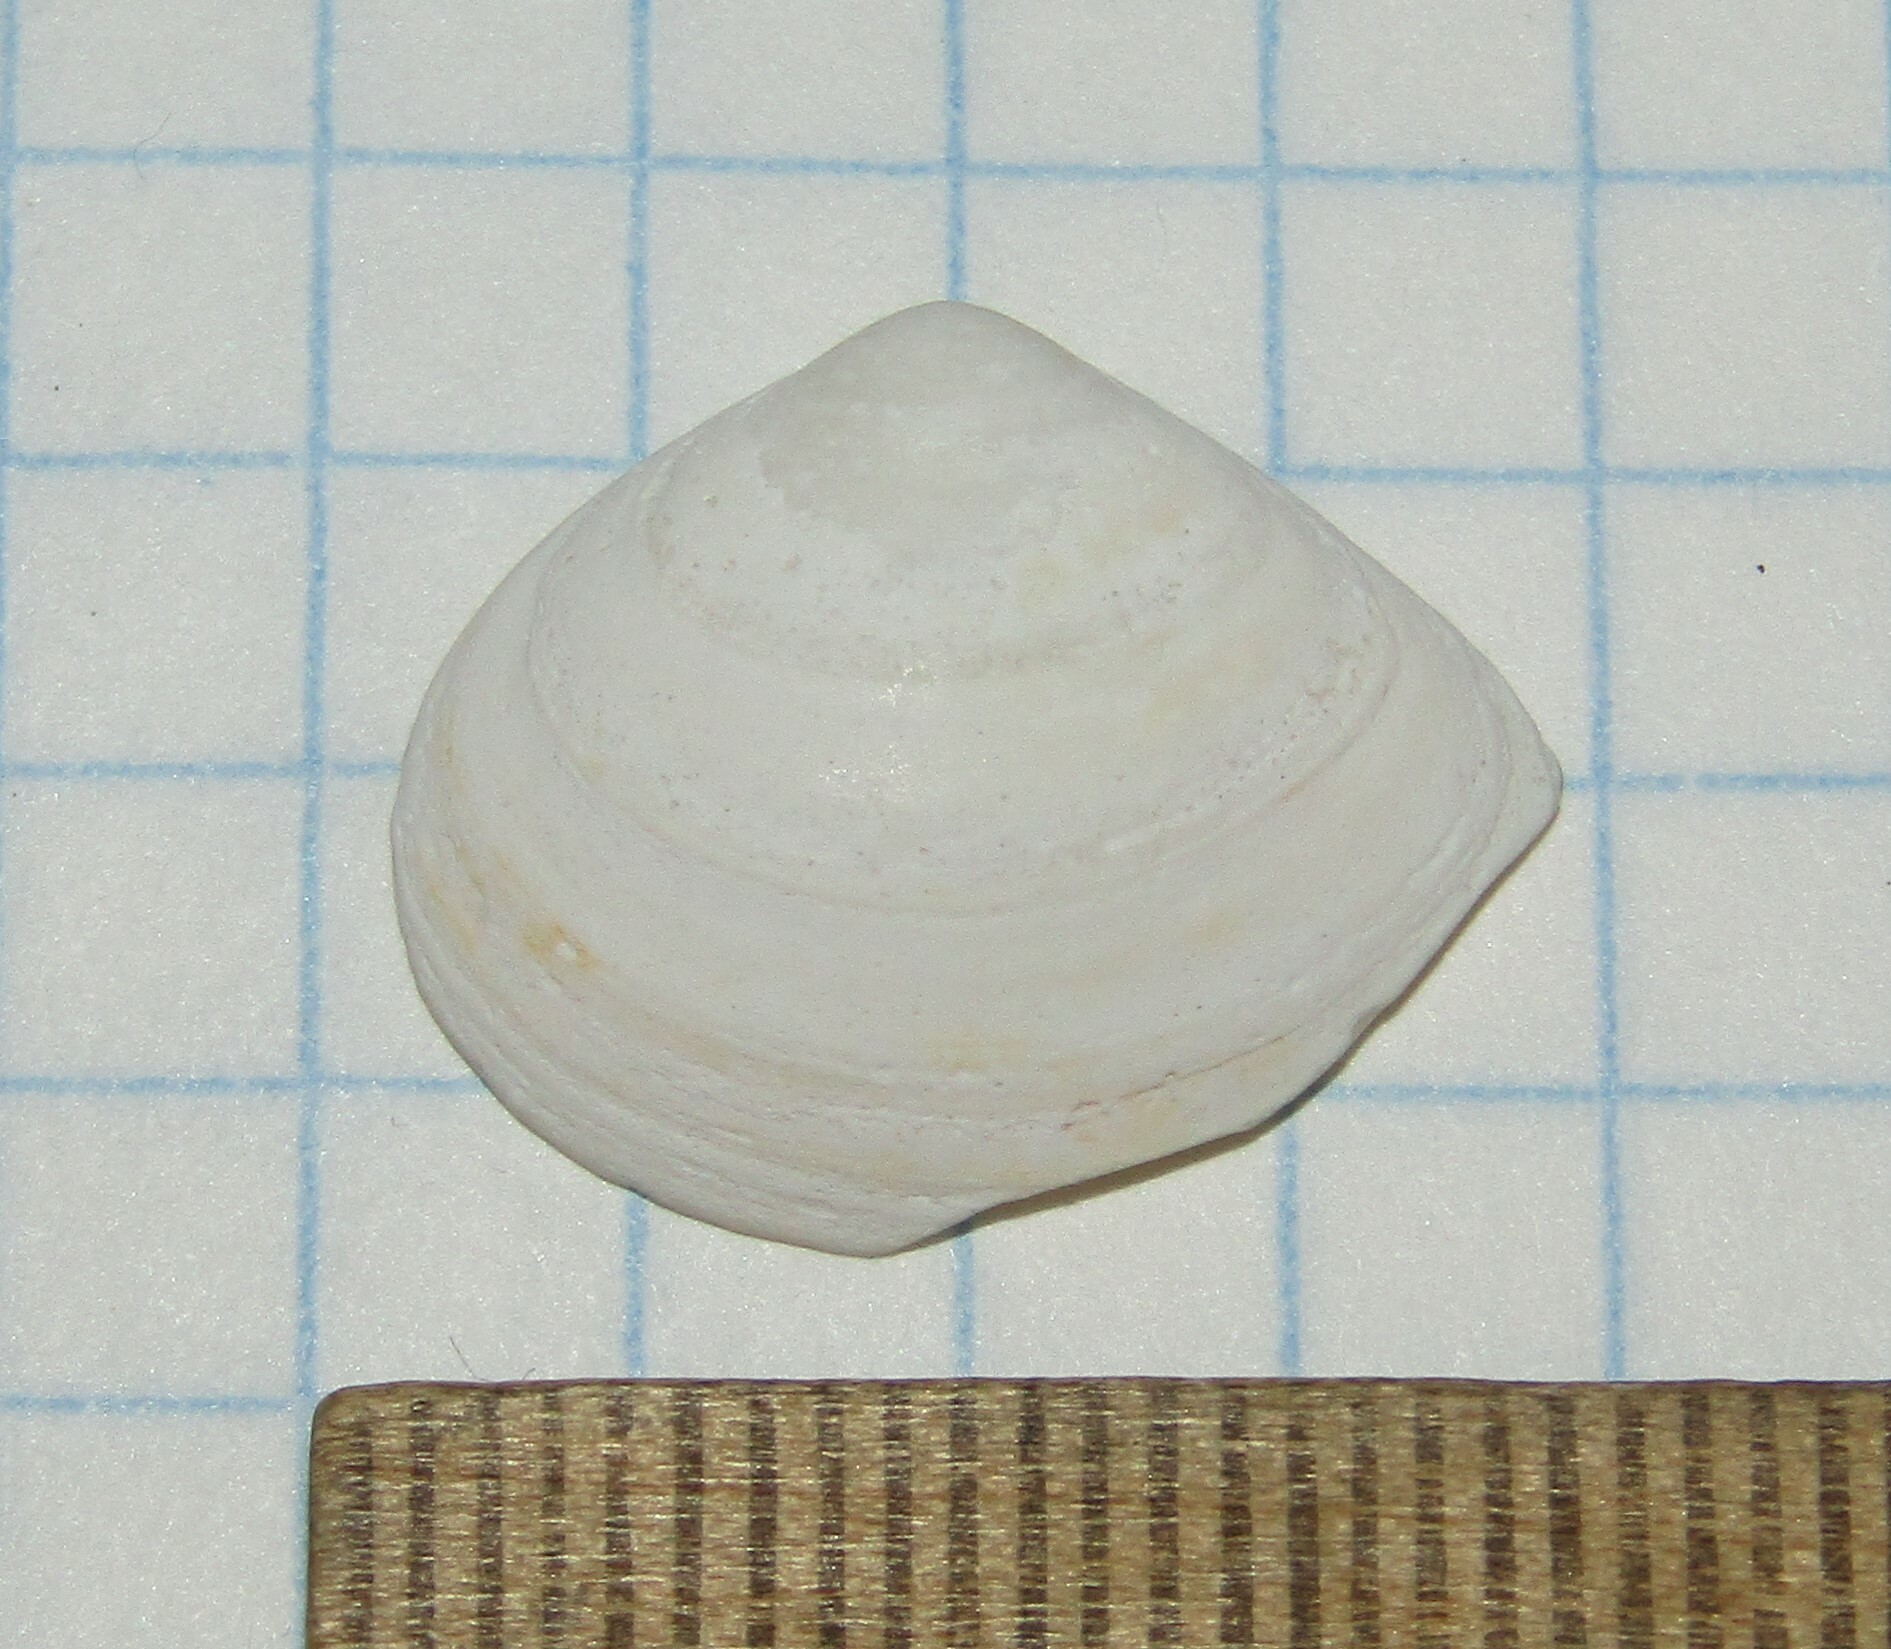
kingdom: Animalia
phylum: Mollusca
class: Bivalvia
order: Cardiida
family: Tellinidae
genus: Macoma
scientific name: Macoma balthica
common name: Baltic tellin
